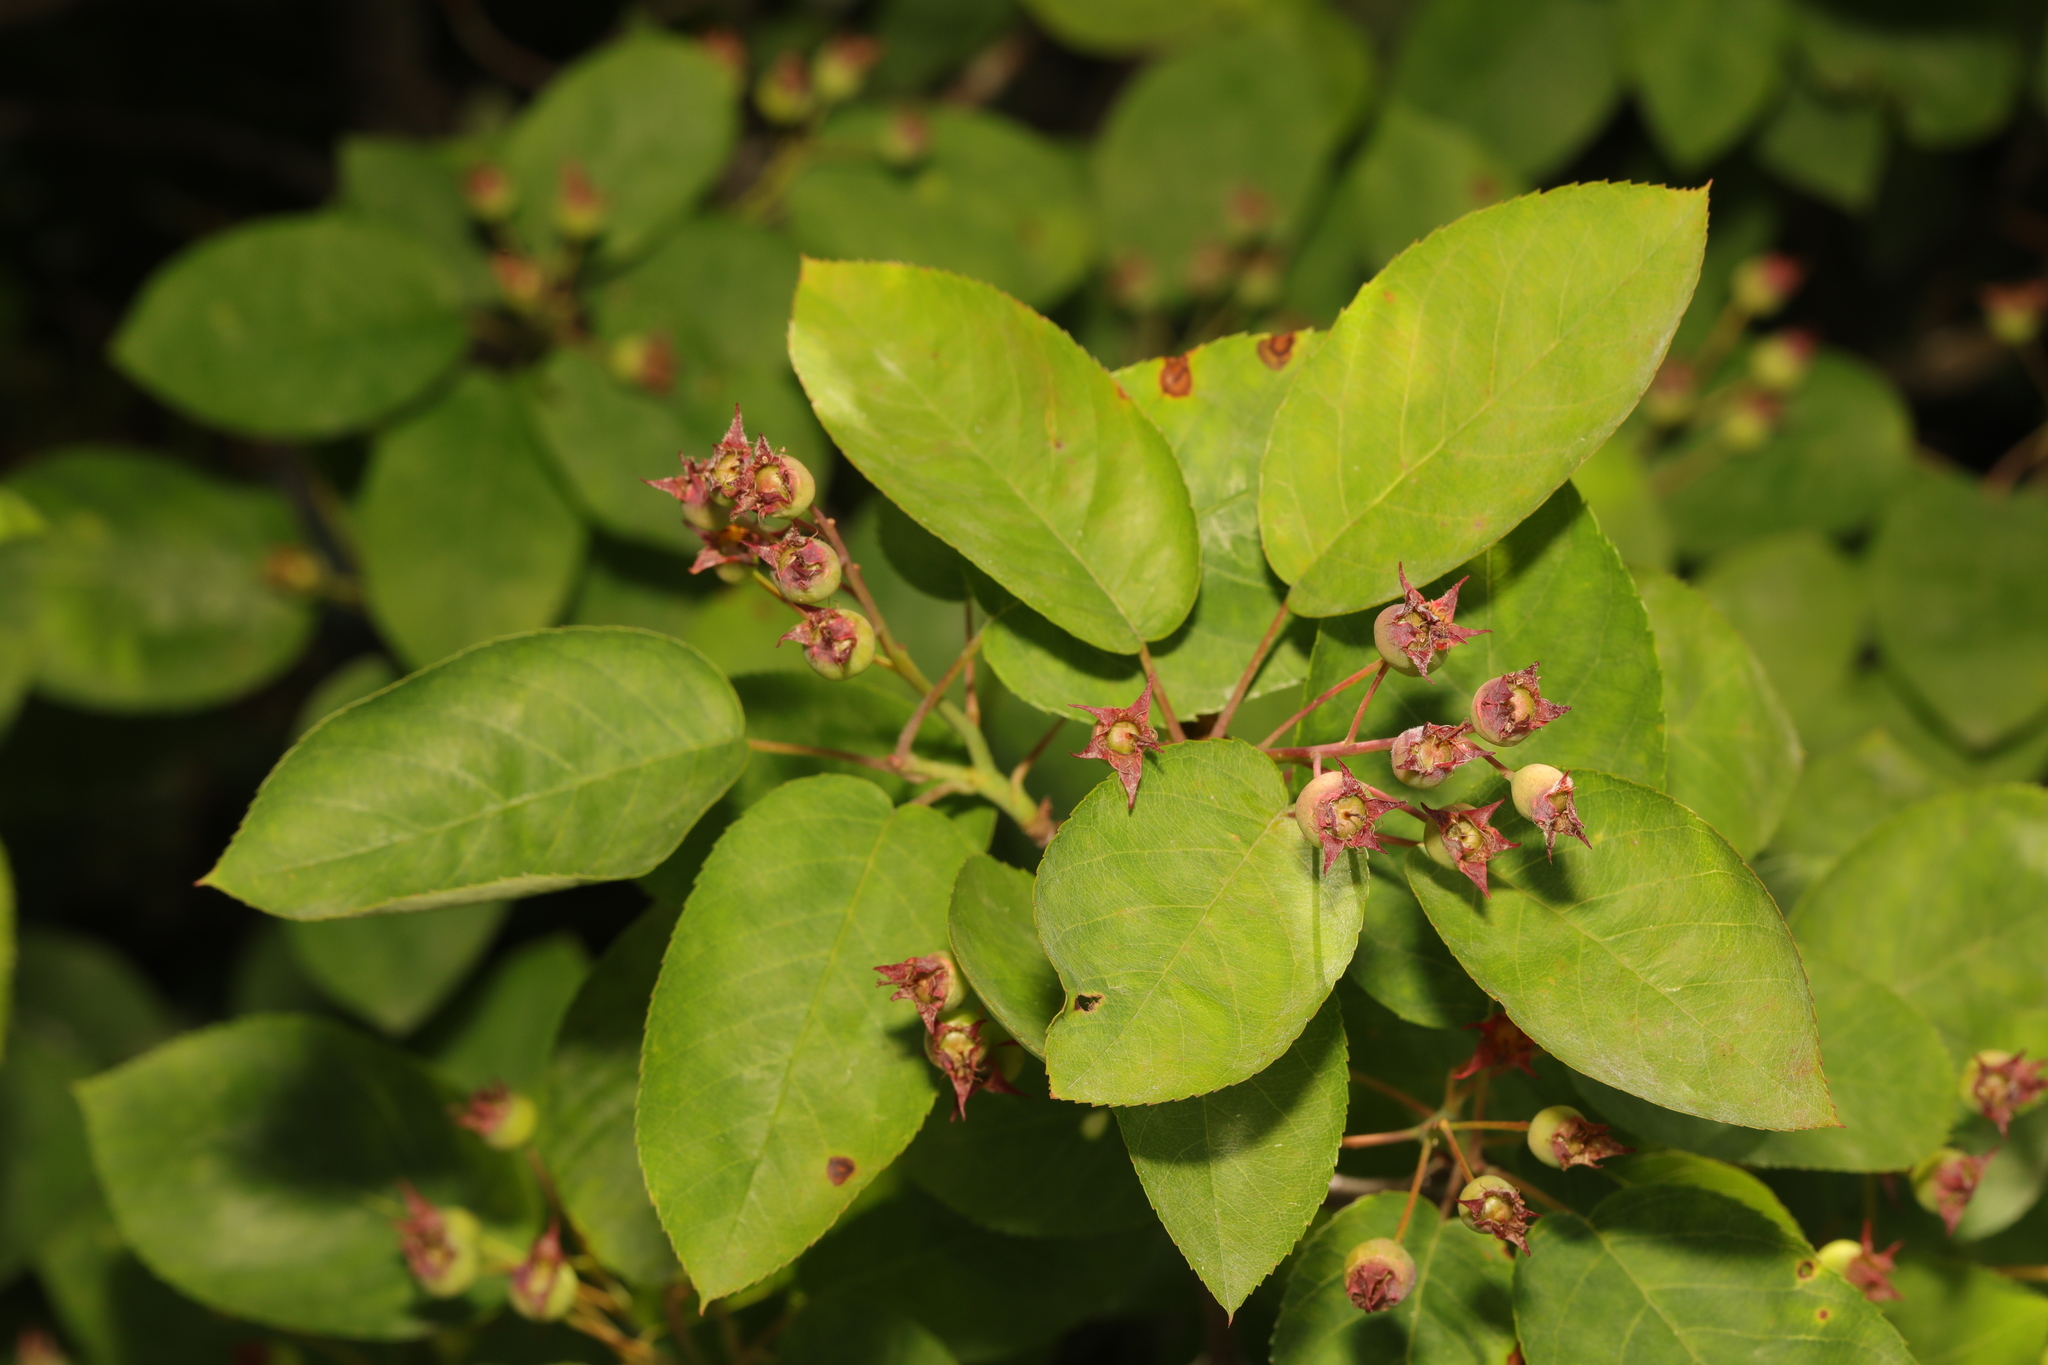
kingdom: Plantae
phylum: Tracheophyta
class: Magnoliopsida
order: Rosales
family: Rosaceae
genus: Amelanchier
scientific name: Amelanchier lamarckii
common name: Juneberry
